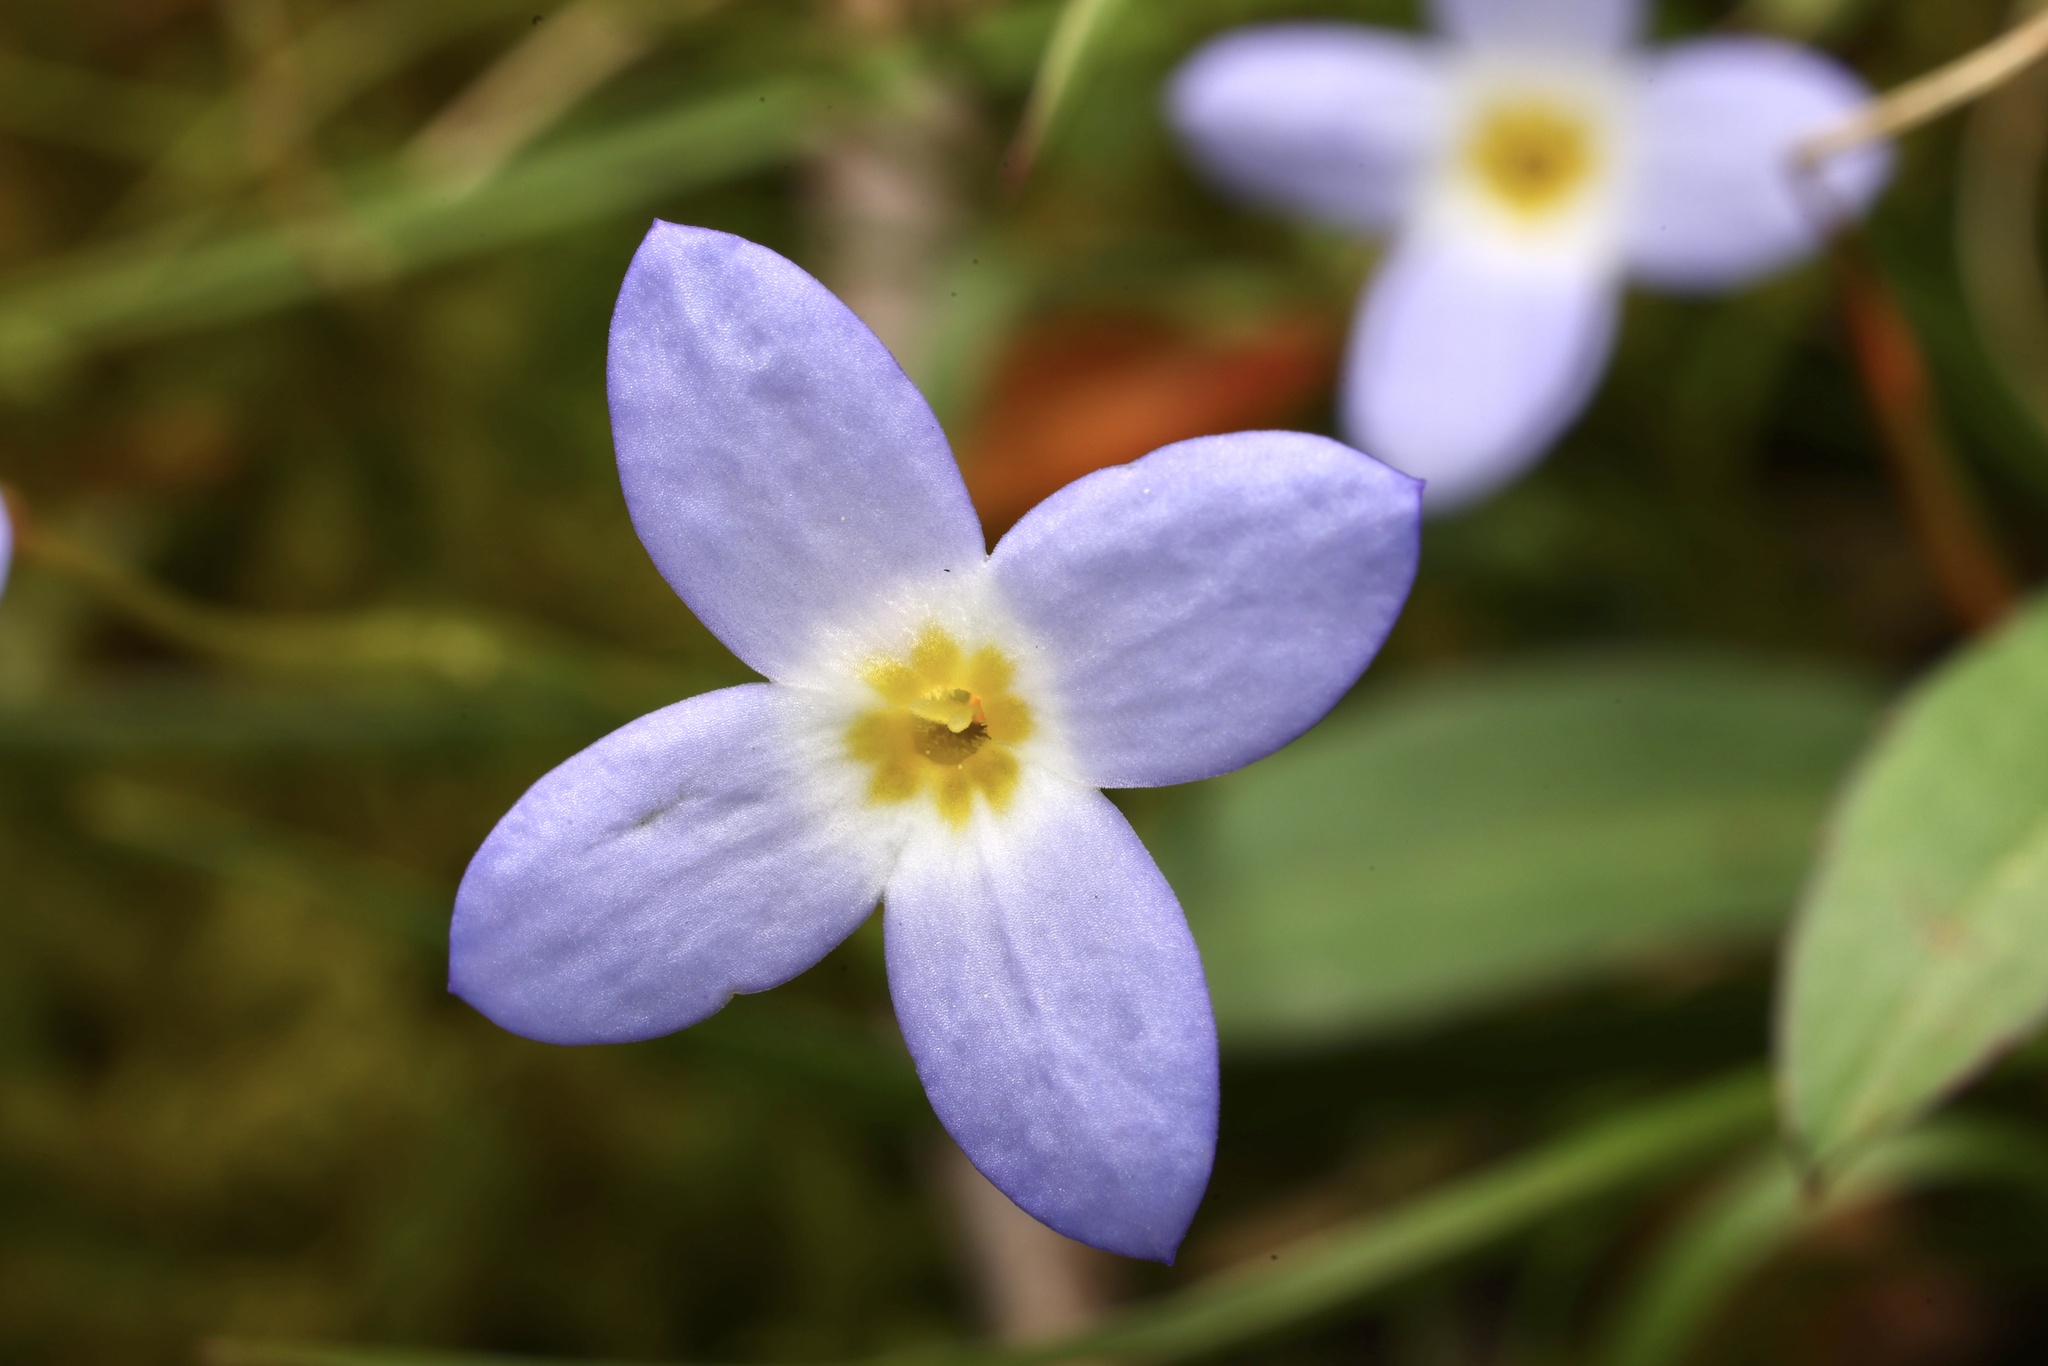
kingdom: Plantae
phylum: Tracheophyta
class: Magnoliopsida
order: Gentianales
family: Rubiaceae
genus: Houstonia
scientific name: Houstonia caerulea
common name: Bluets
